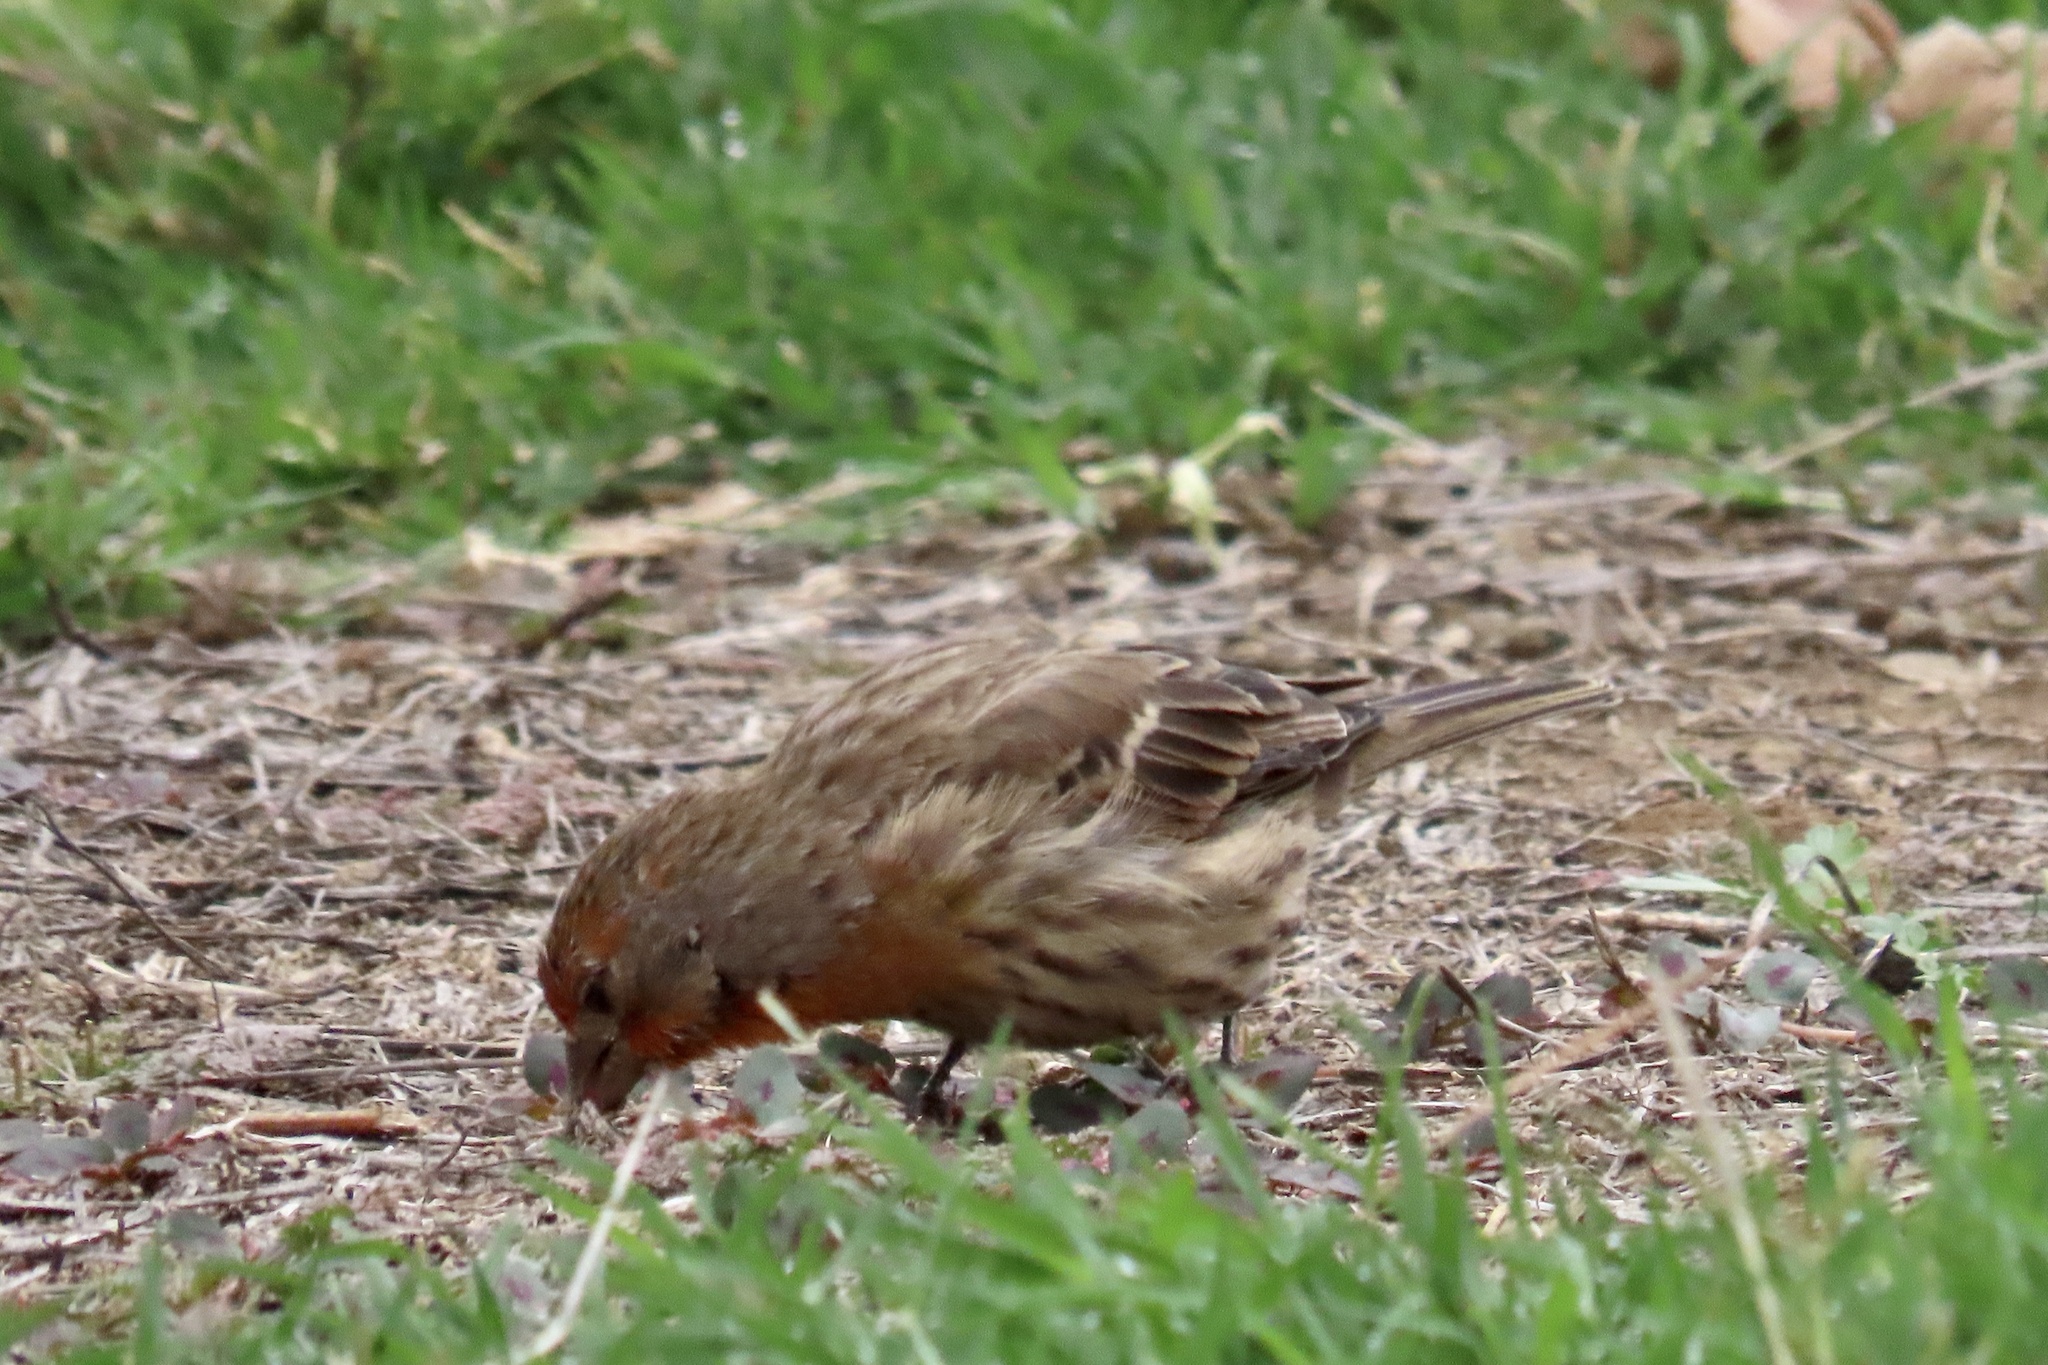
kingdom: Animalia
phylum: Chordata
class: Aves
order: Passeriformes
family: Fringillidae
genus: Haemorhous
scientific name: Haemorhous mexicanus
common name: House finch
